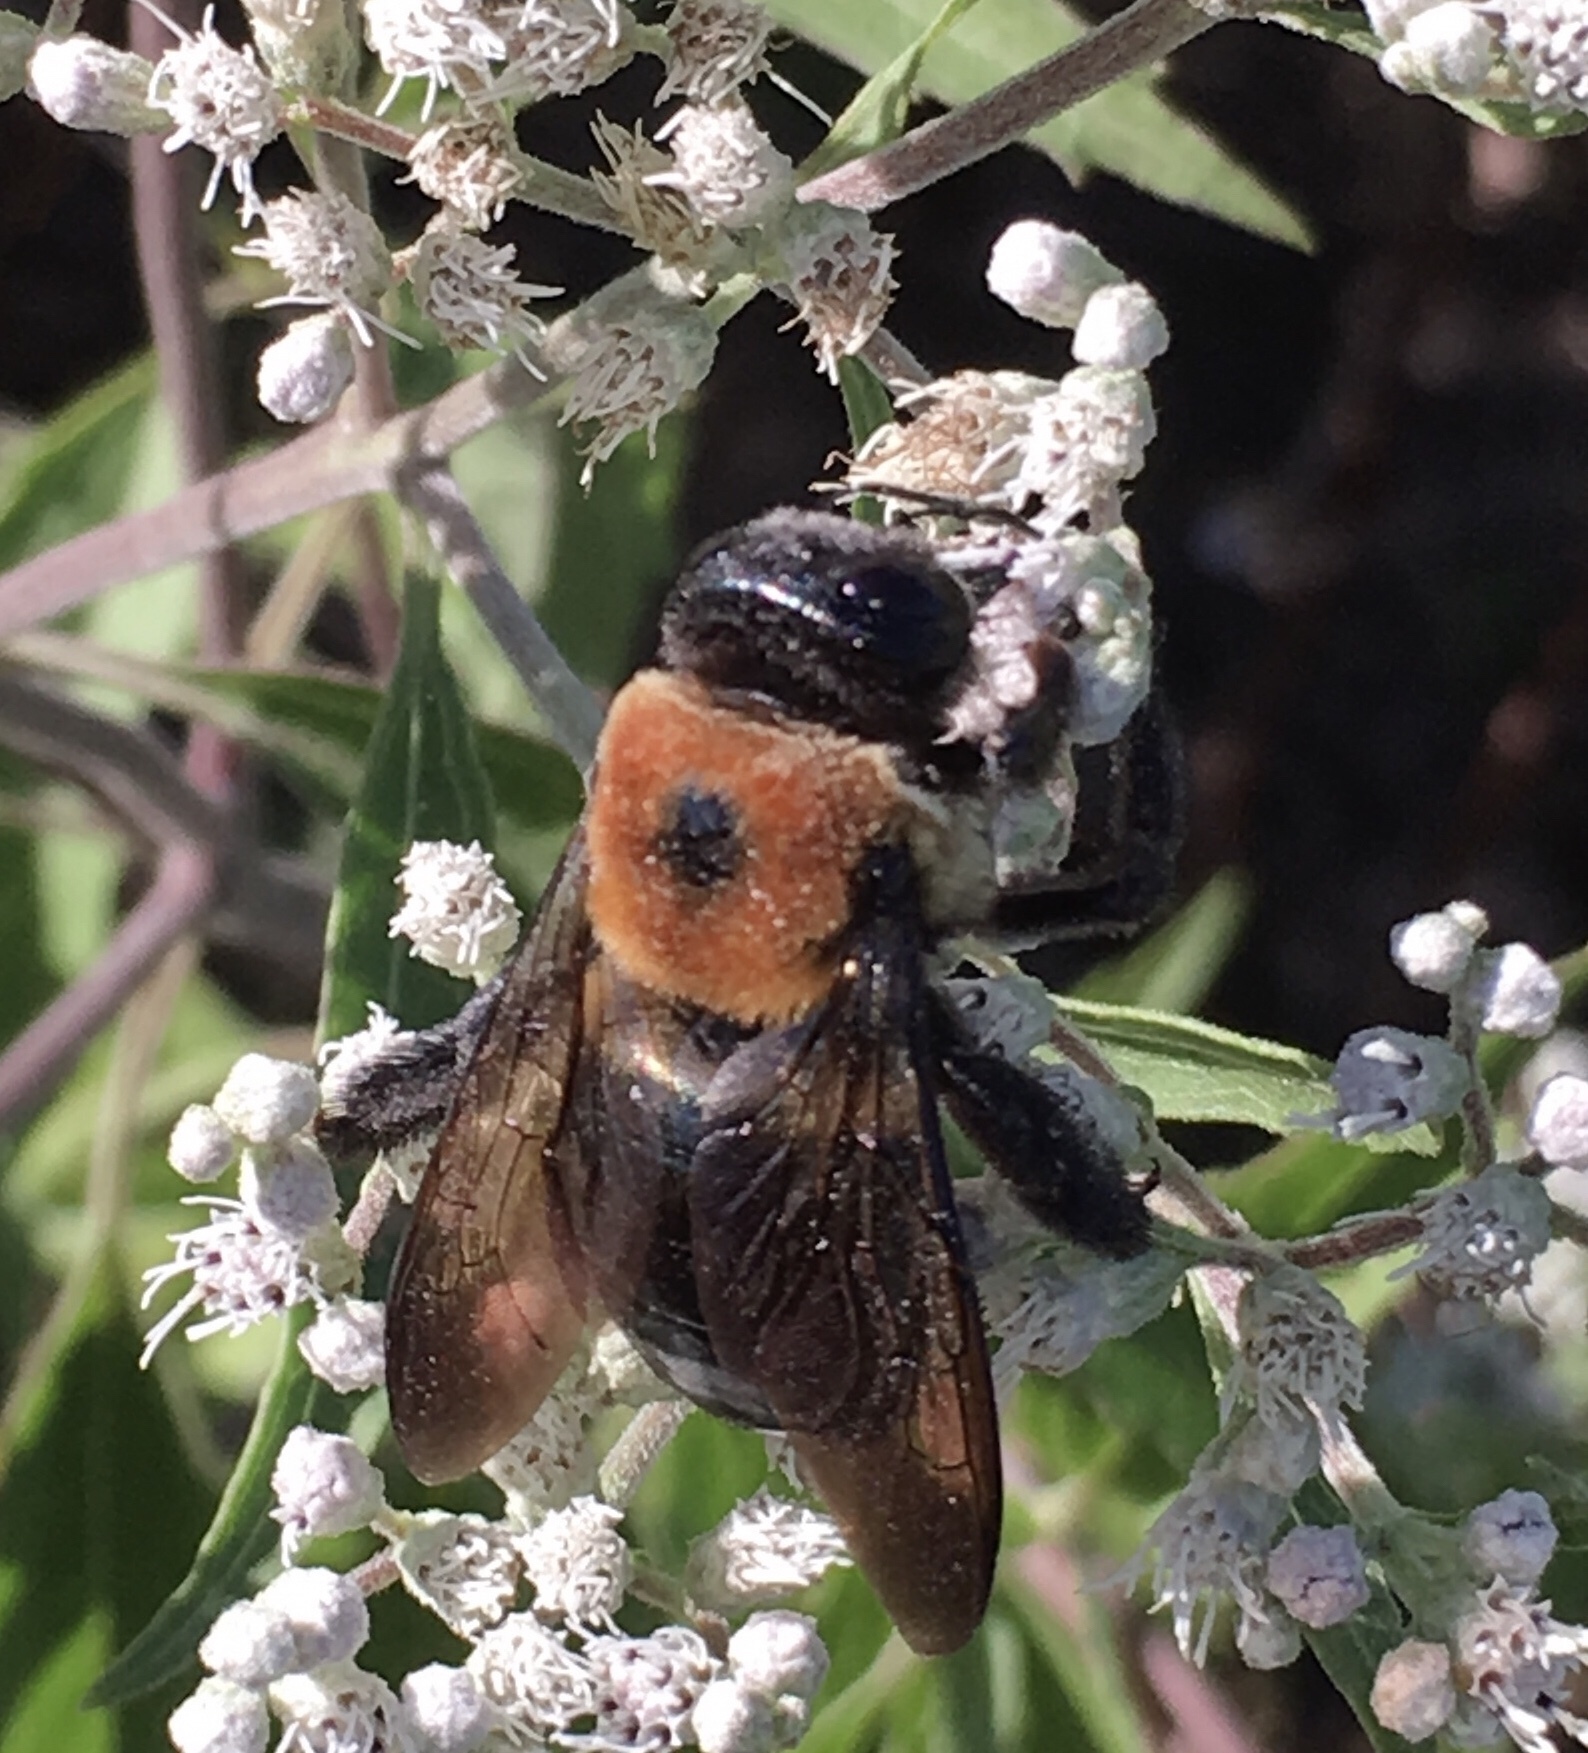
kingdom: Animalia
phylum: Arthropoda
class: Insecta
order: Hymenoptera
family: Apidae
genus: Xylocopa
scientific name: Xylocopa virginica
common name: Carpenter bee
